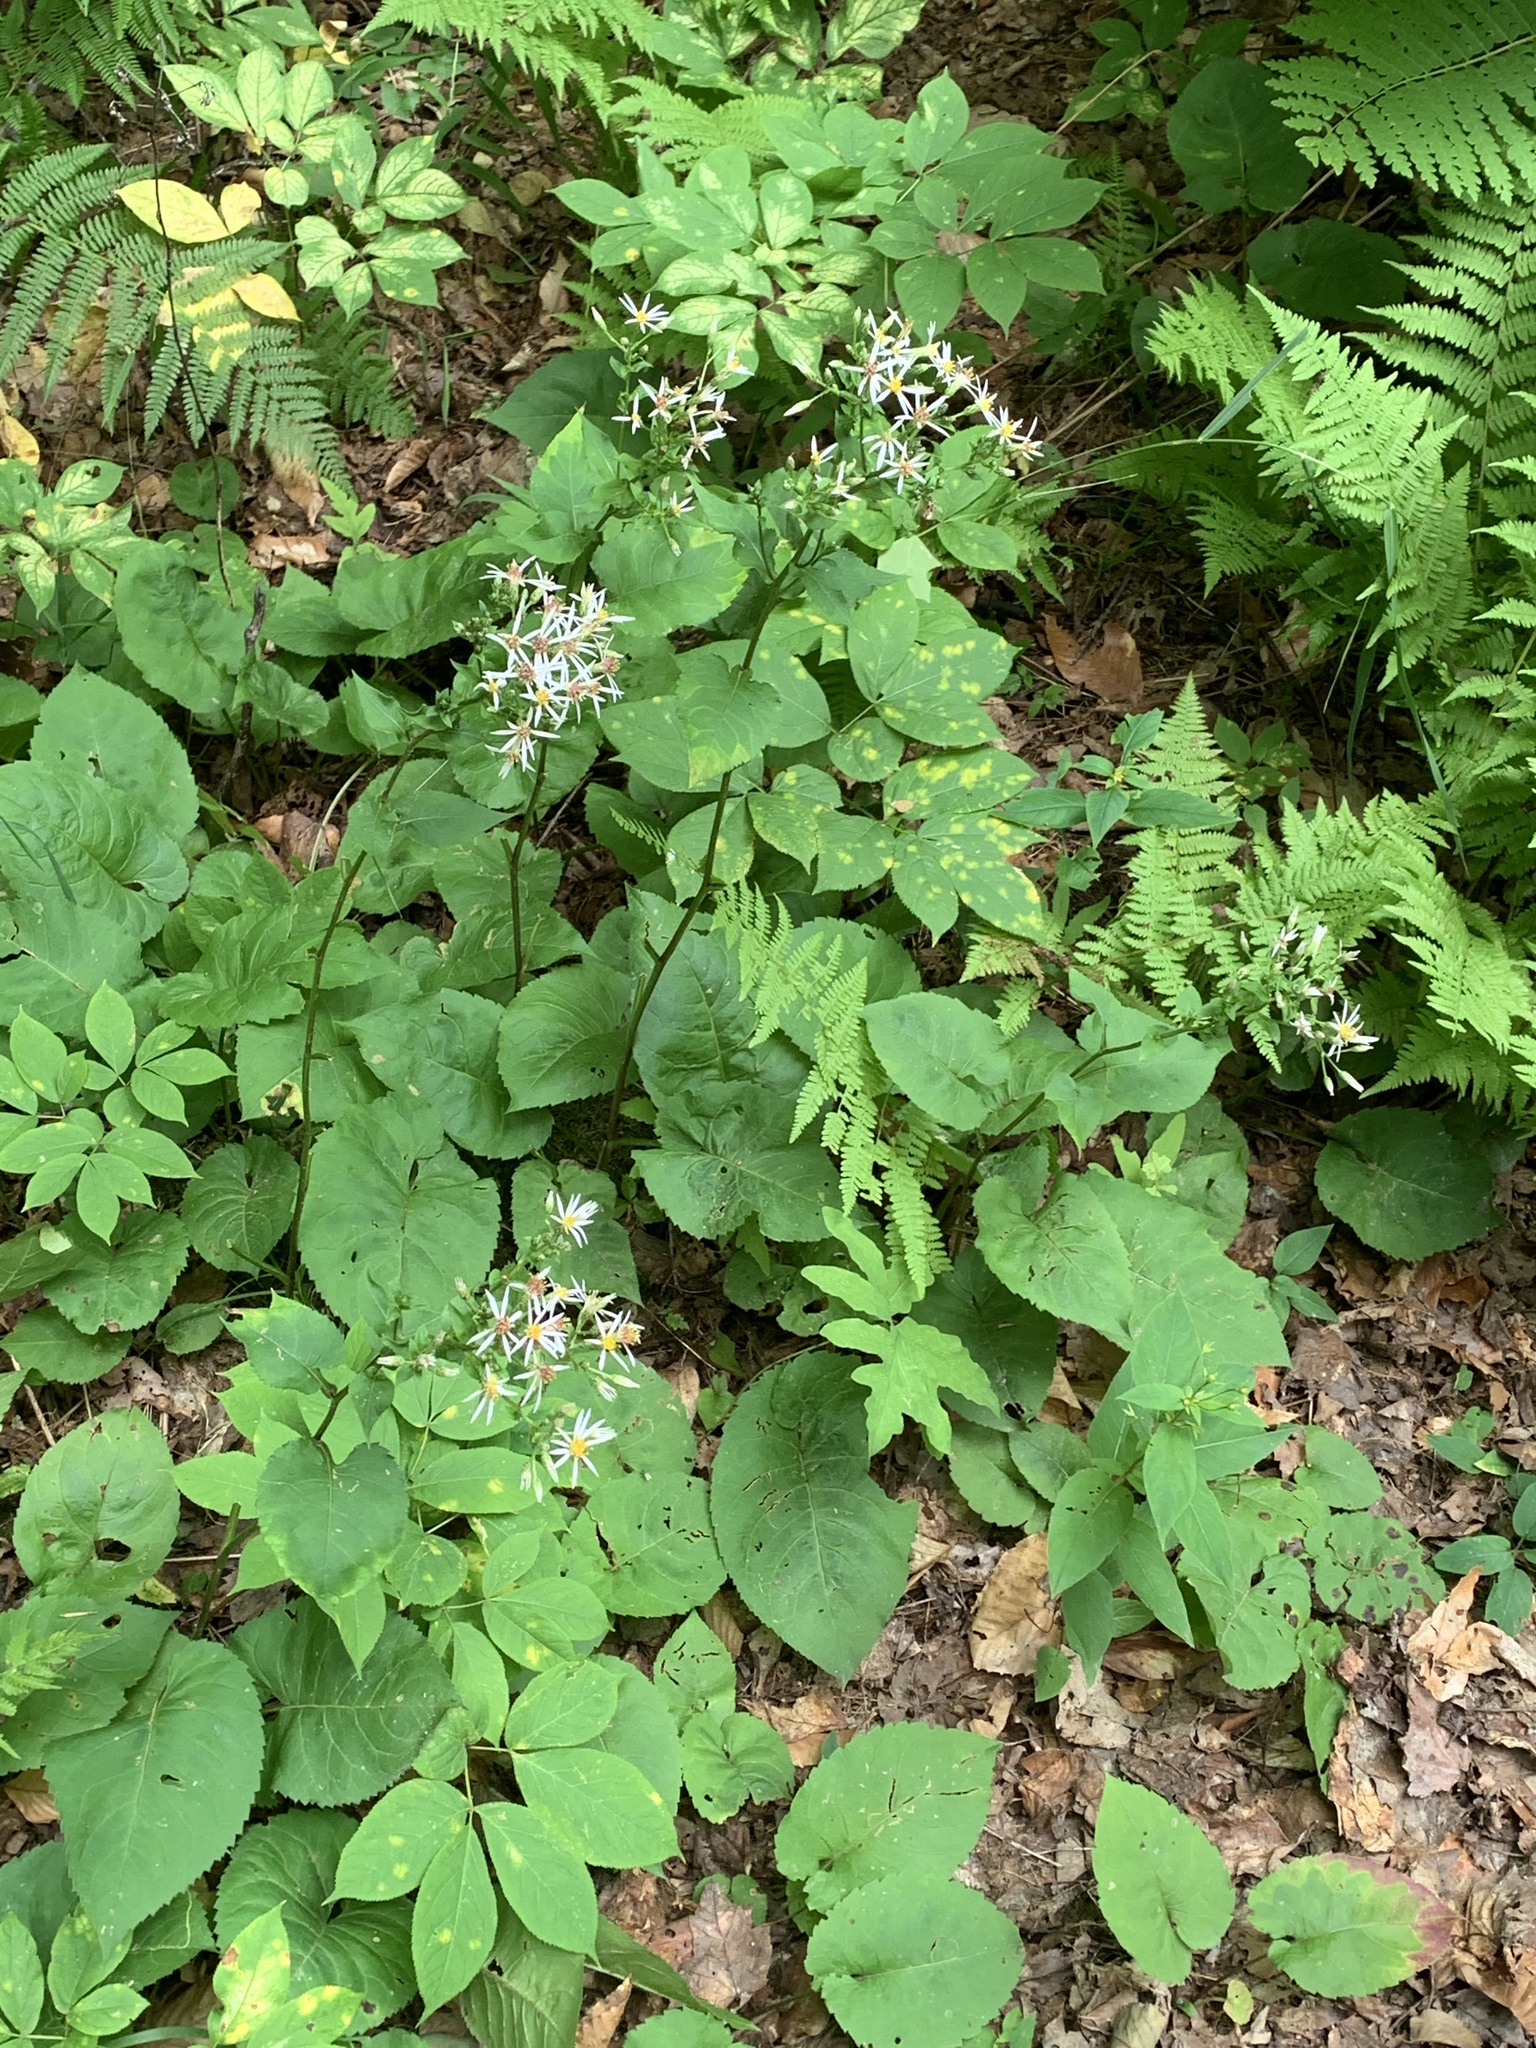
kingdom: Plantae
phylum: Tracheophyta
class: Magnoliopsida
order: Asterales
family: Asteraceae
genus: Eurybia
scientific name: Eurybia macrophylla
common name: Big-leaved aster
